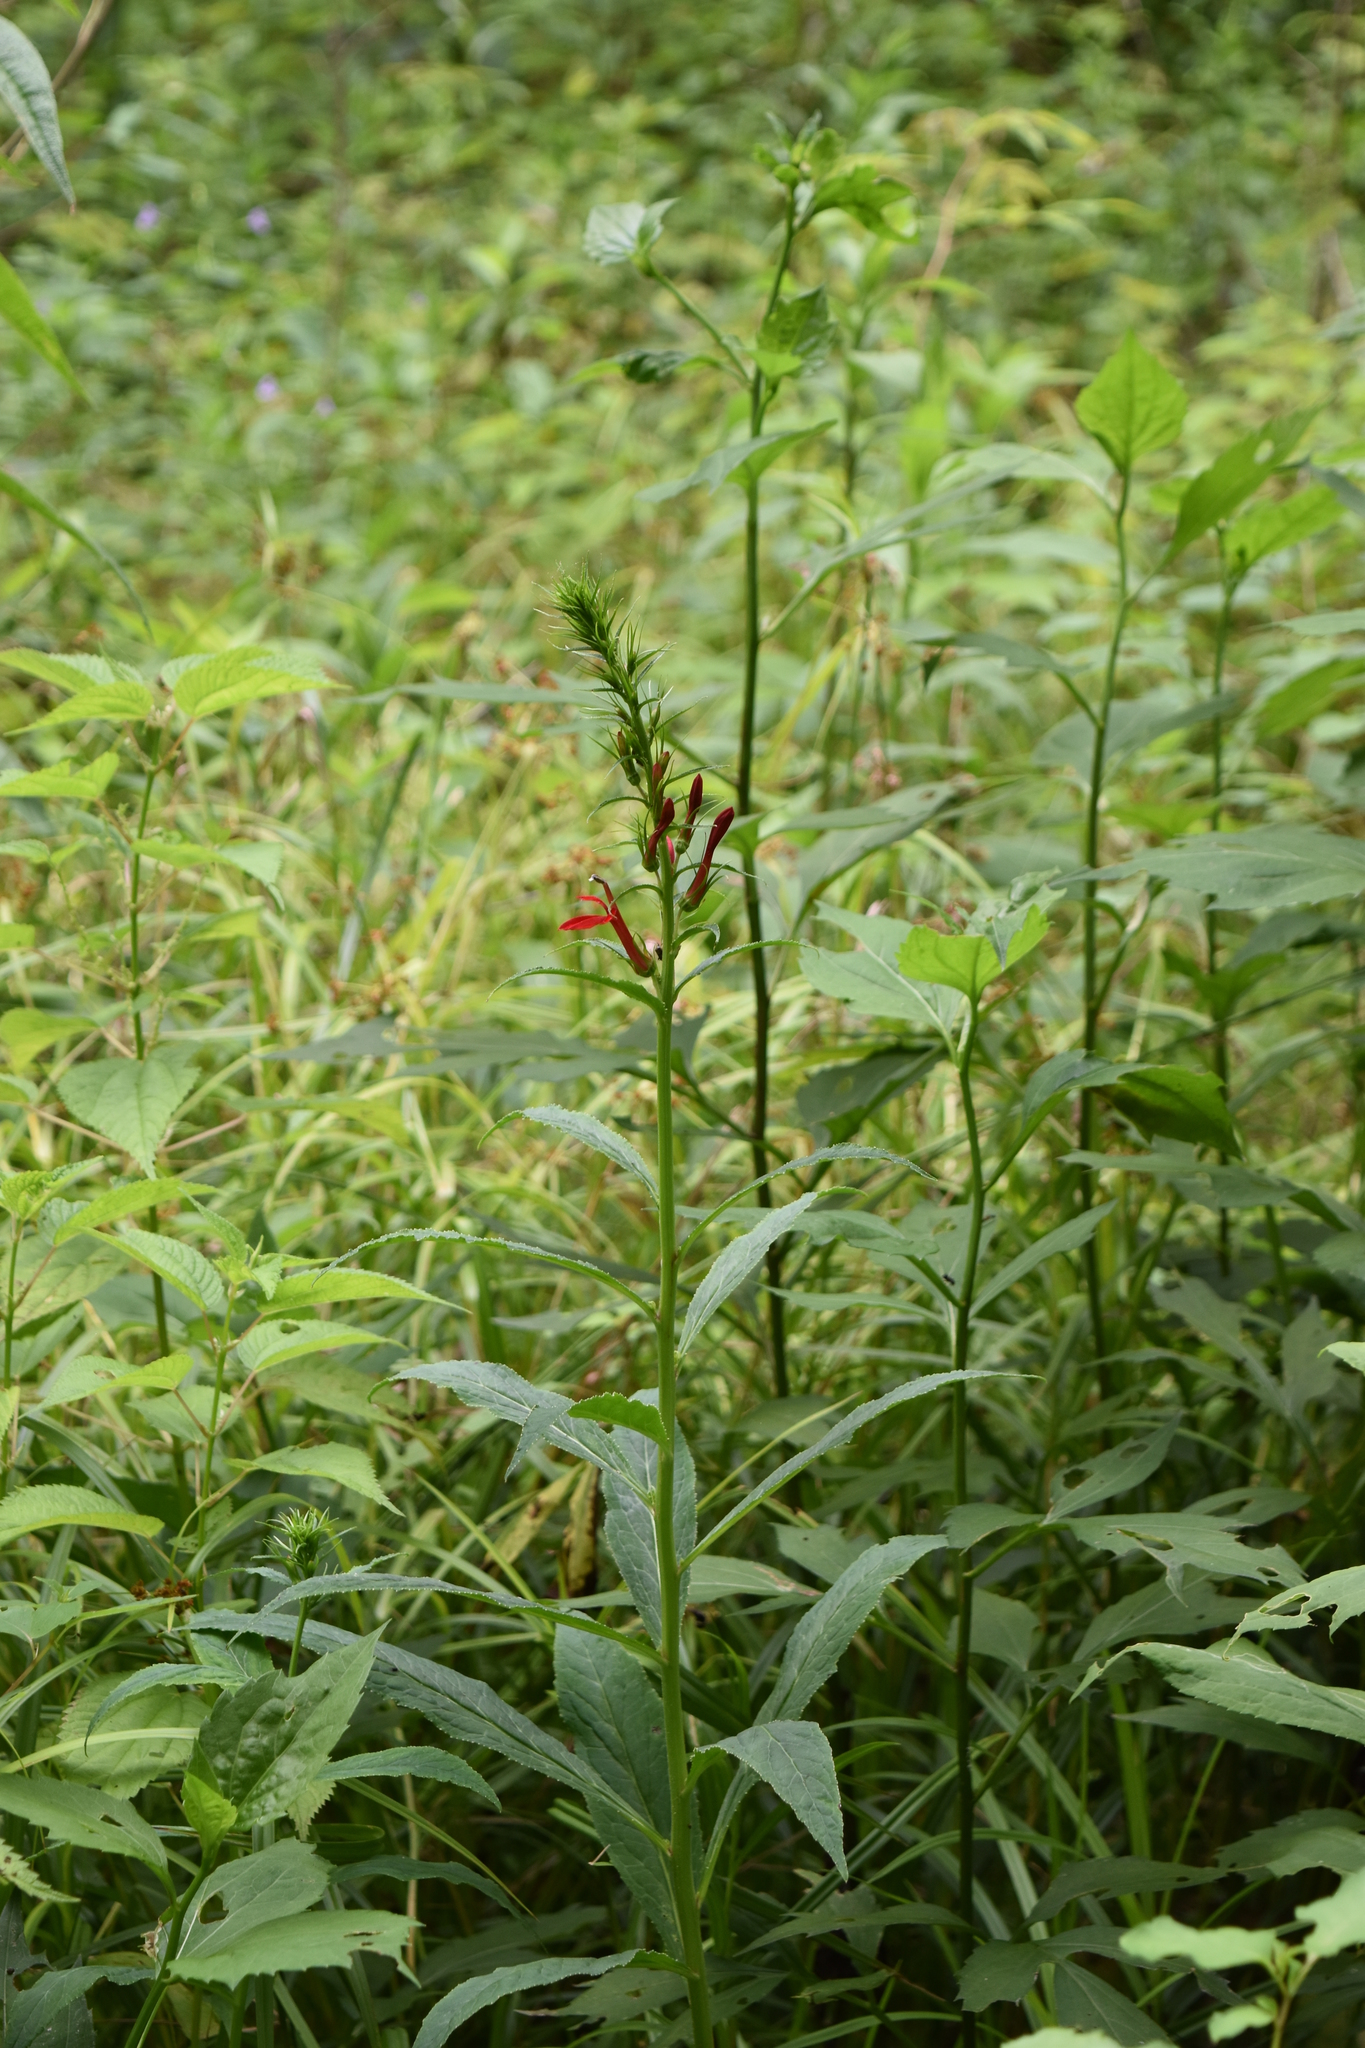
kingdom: Plantae
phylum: Tracheophyta
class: Magnoliopsida
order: Asterales
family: Campanulaceae
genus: Lobelia
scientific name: Lobelia cardinalis
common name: Cardinal flower
